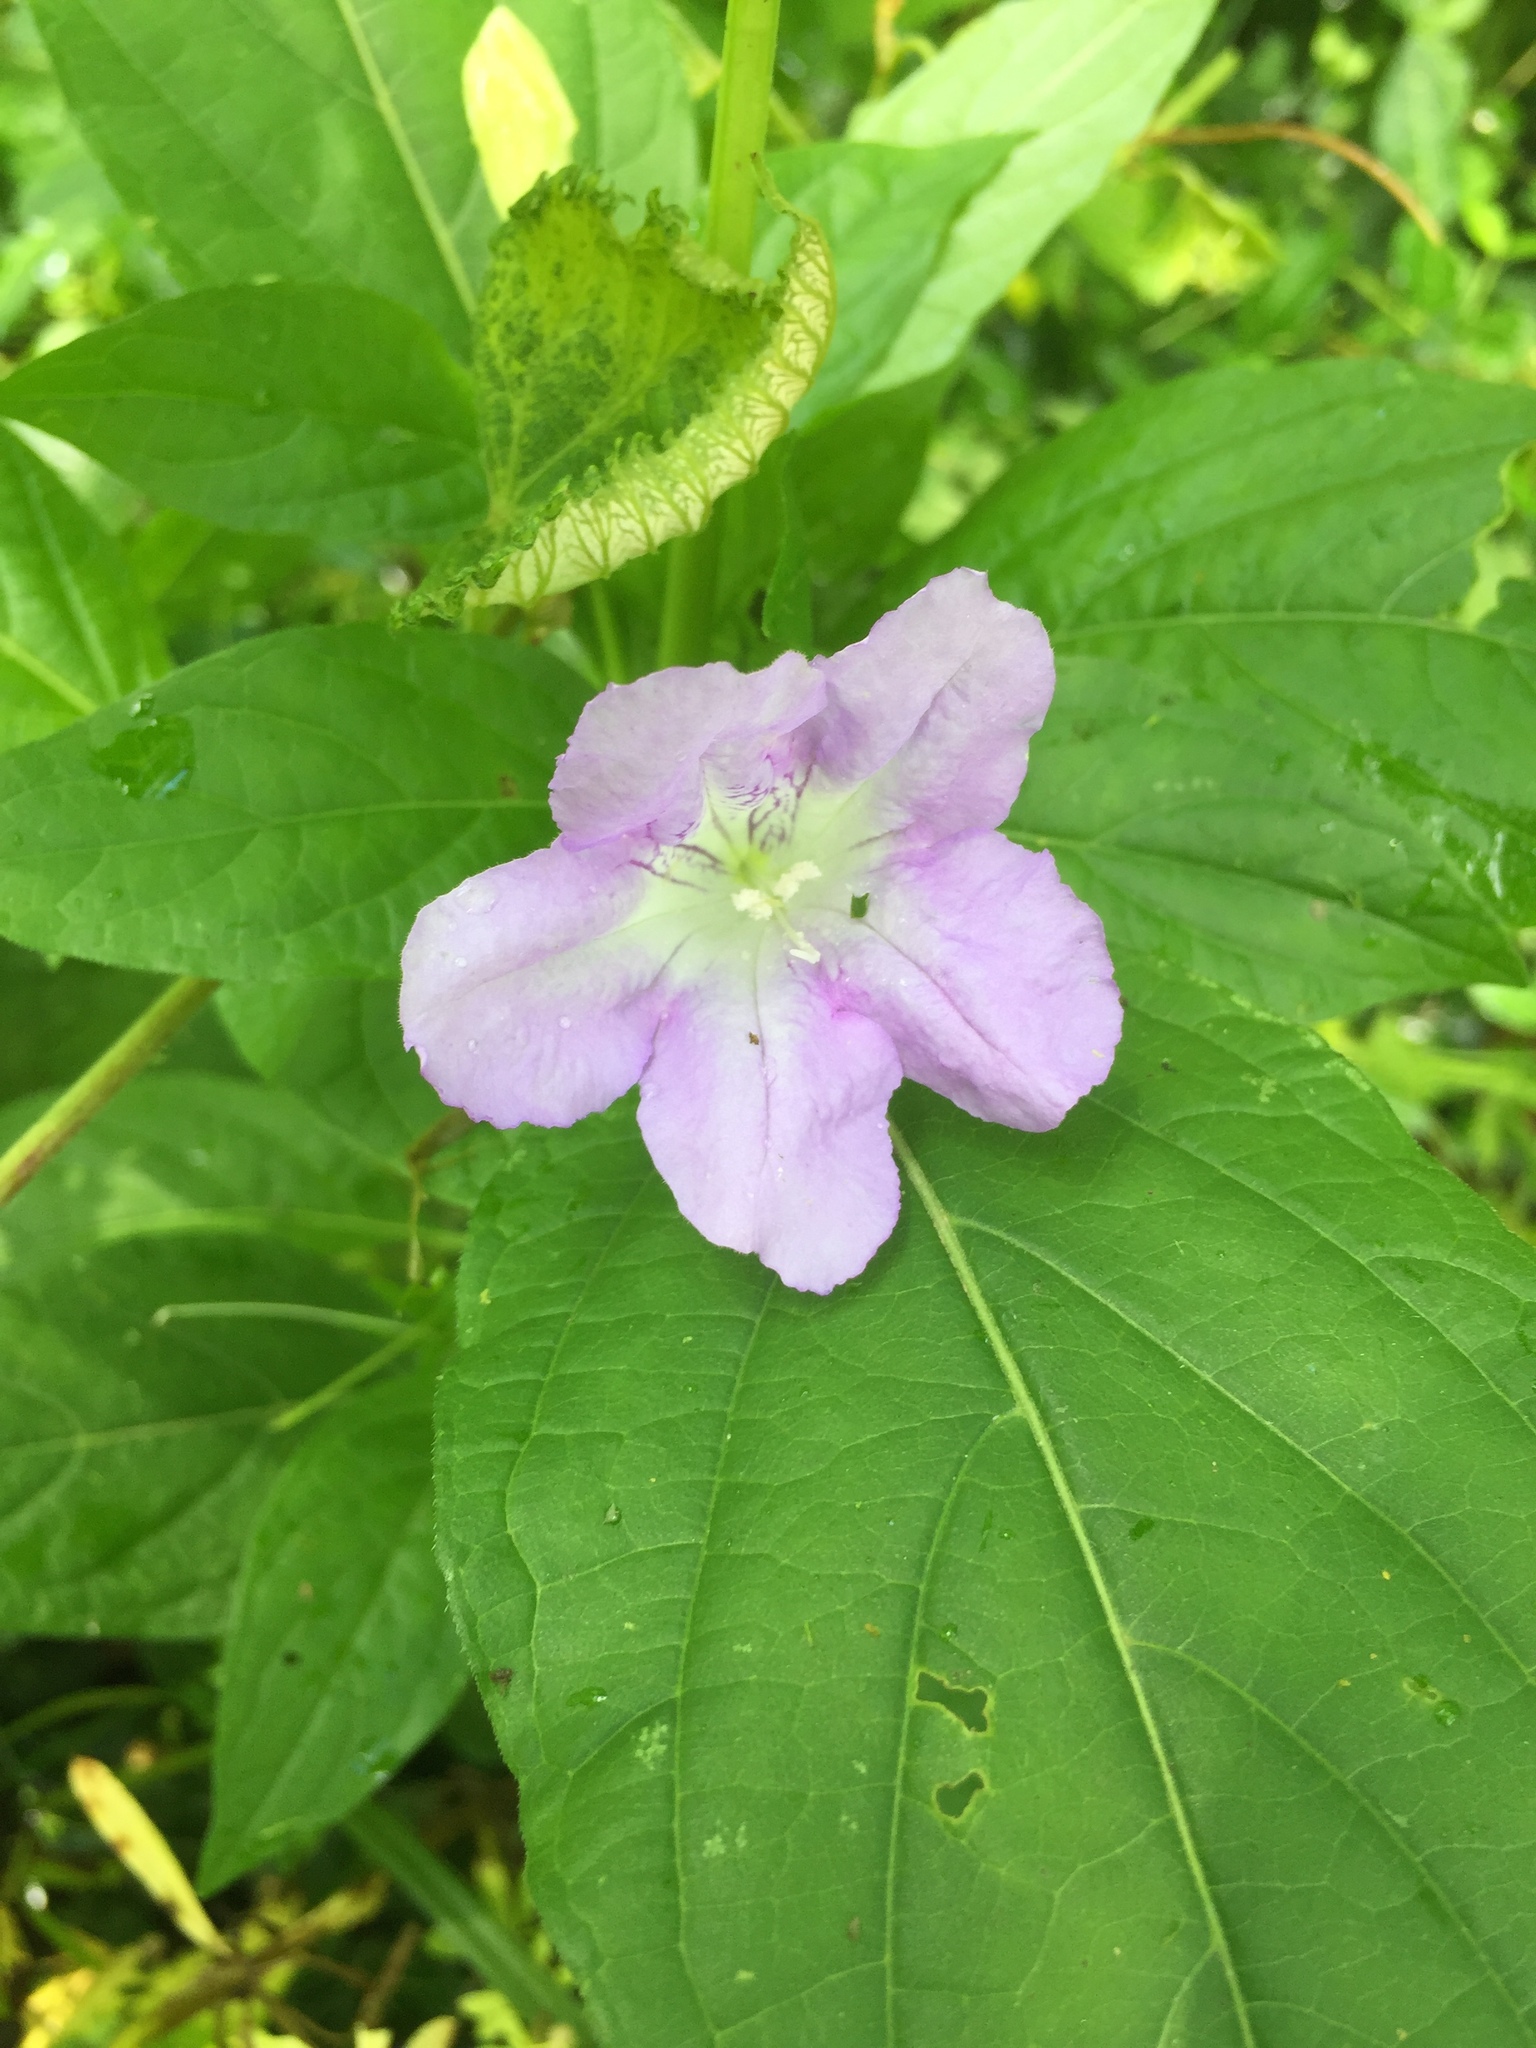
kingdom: Plantae
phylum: Tracheophyta
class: Magnoliopsida
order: Lamiales
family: Acanthaceae
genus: Ruellia
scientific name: Ruellia strepens
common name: Limestone wild petunia
